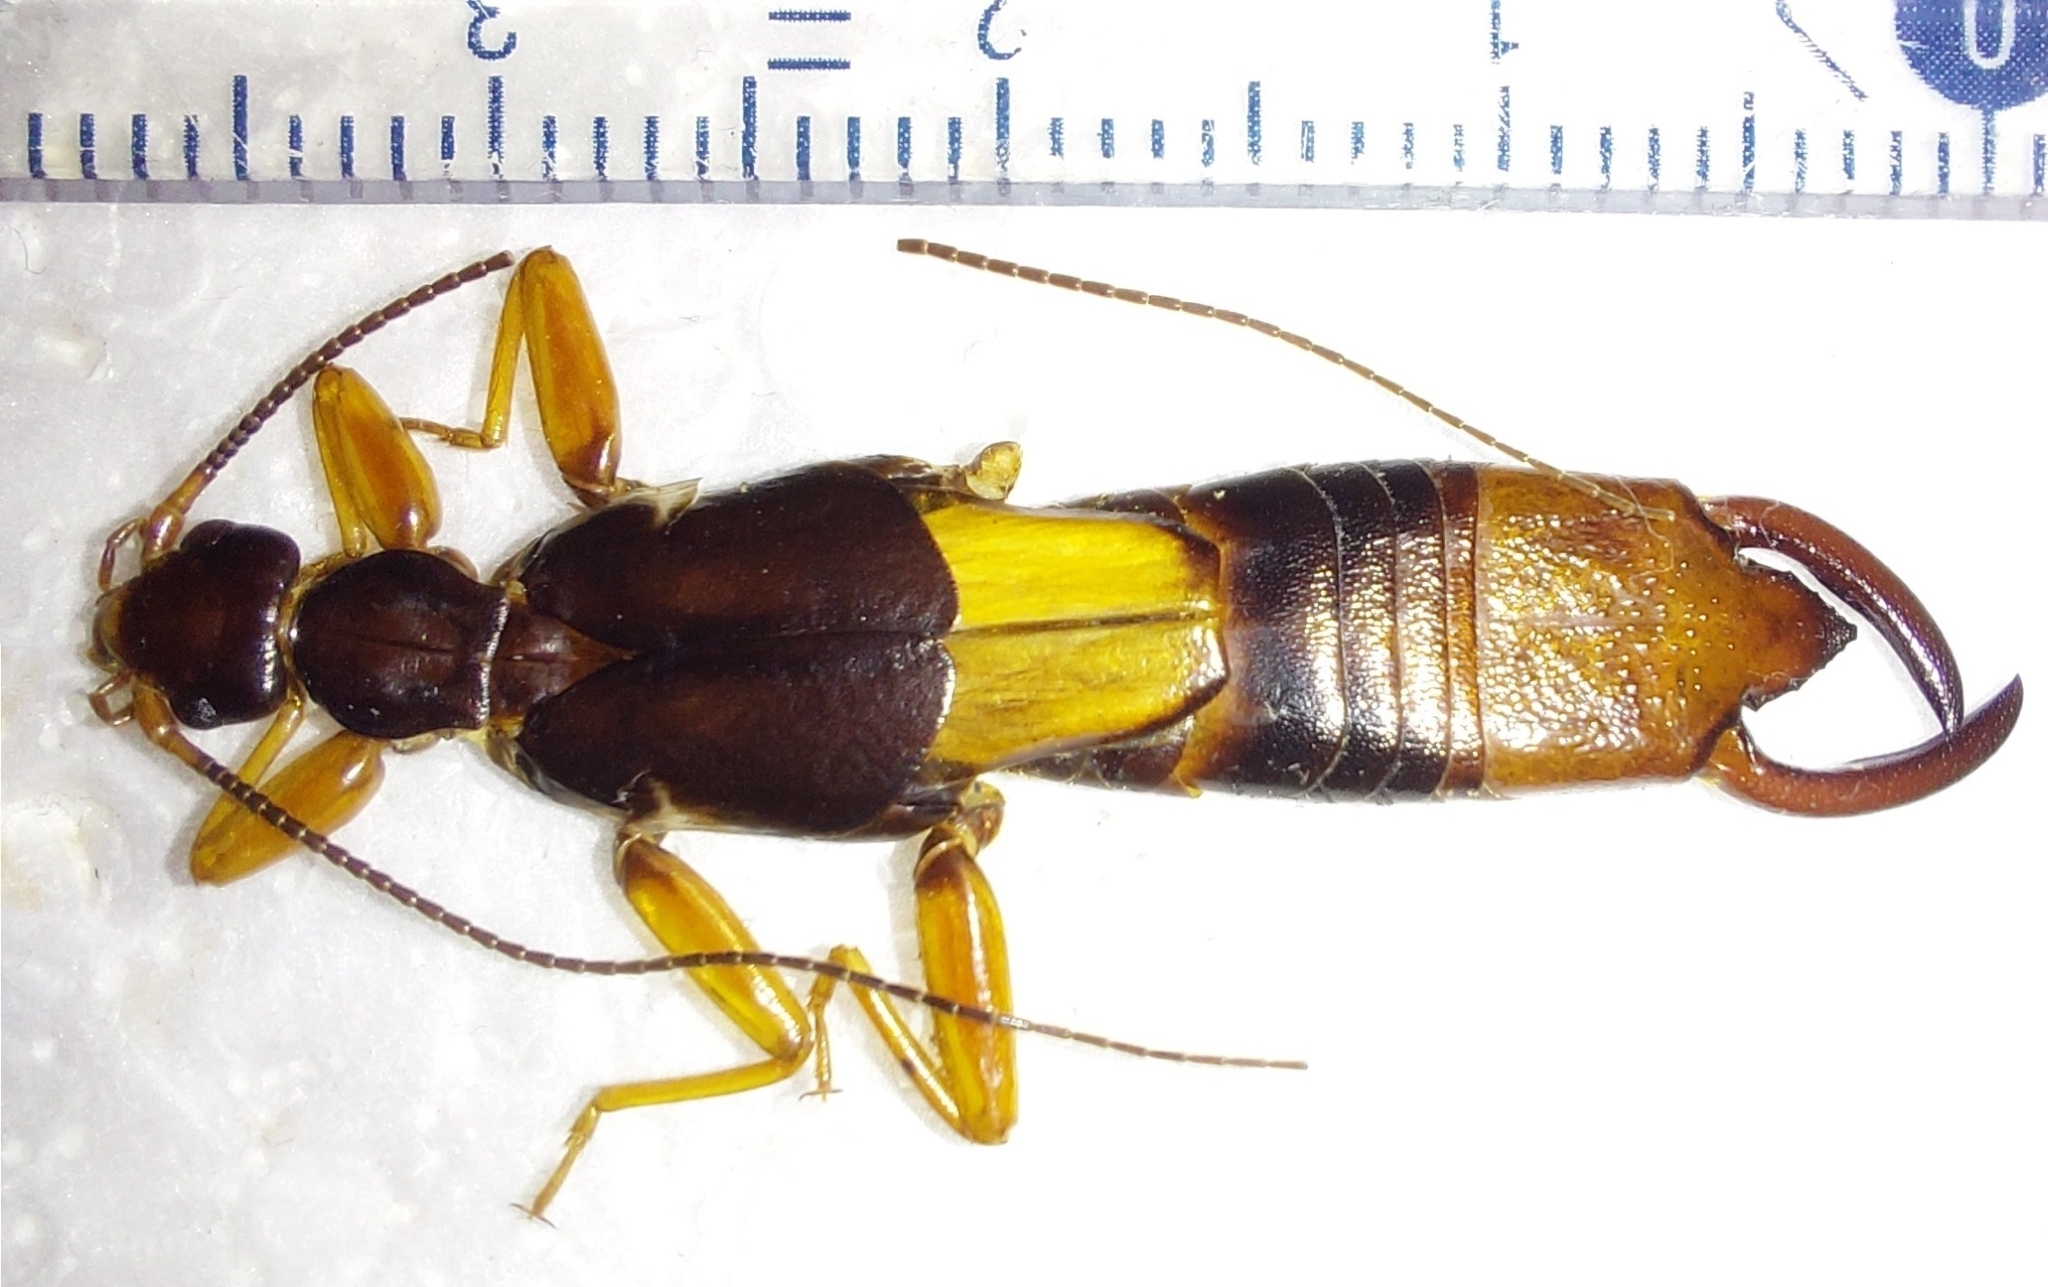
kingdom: Animalia
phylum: Arthropoda
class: Insecta
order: Dermaptera
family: Apachyidae
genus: Apachyus
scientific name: Apachyus feae
